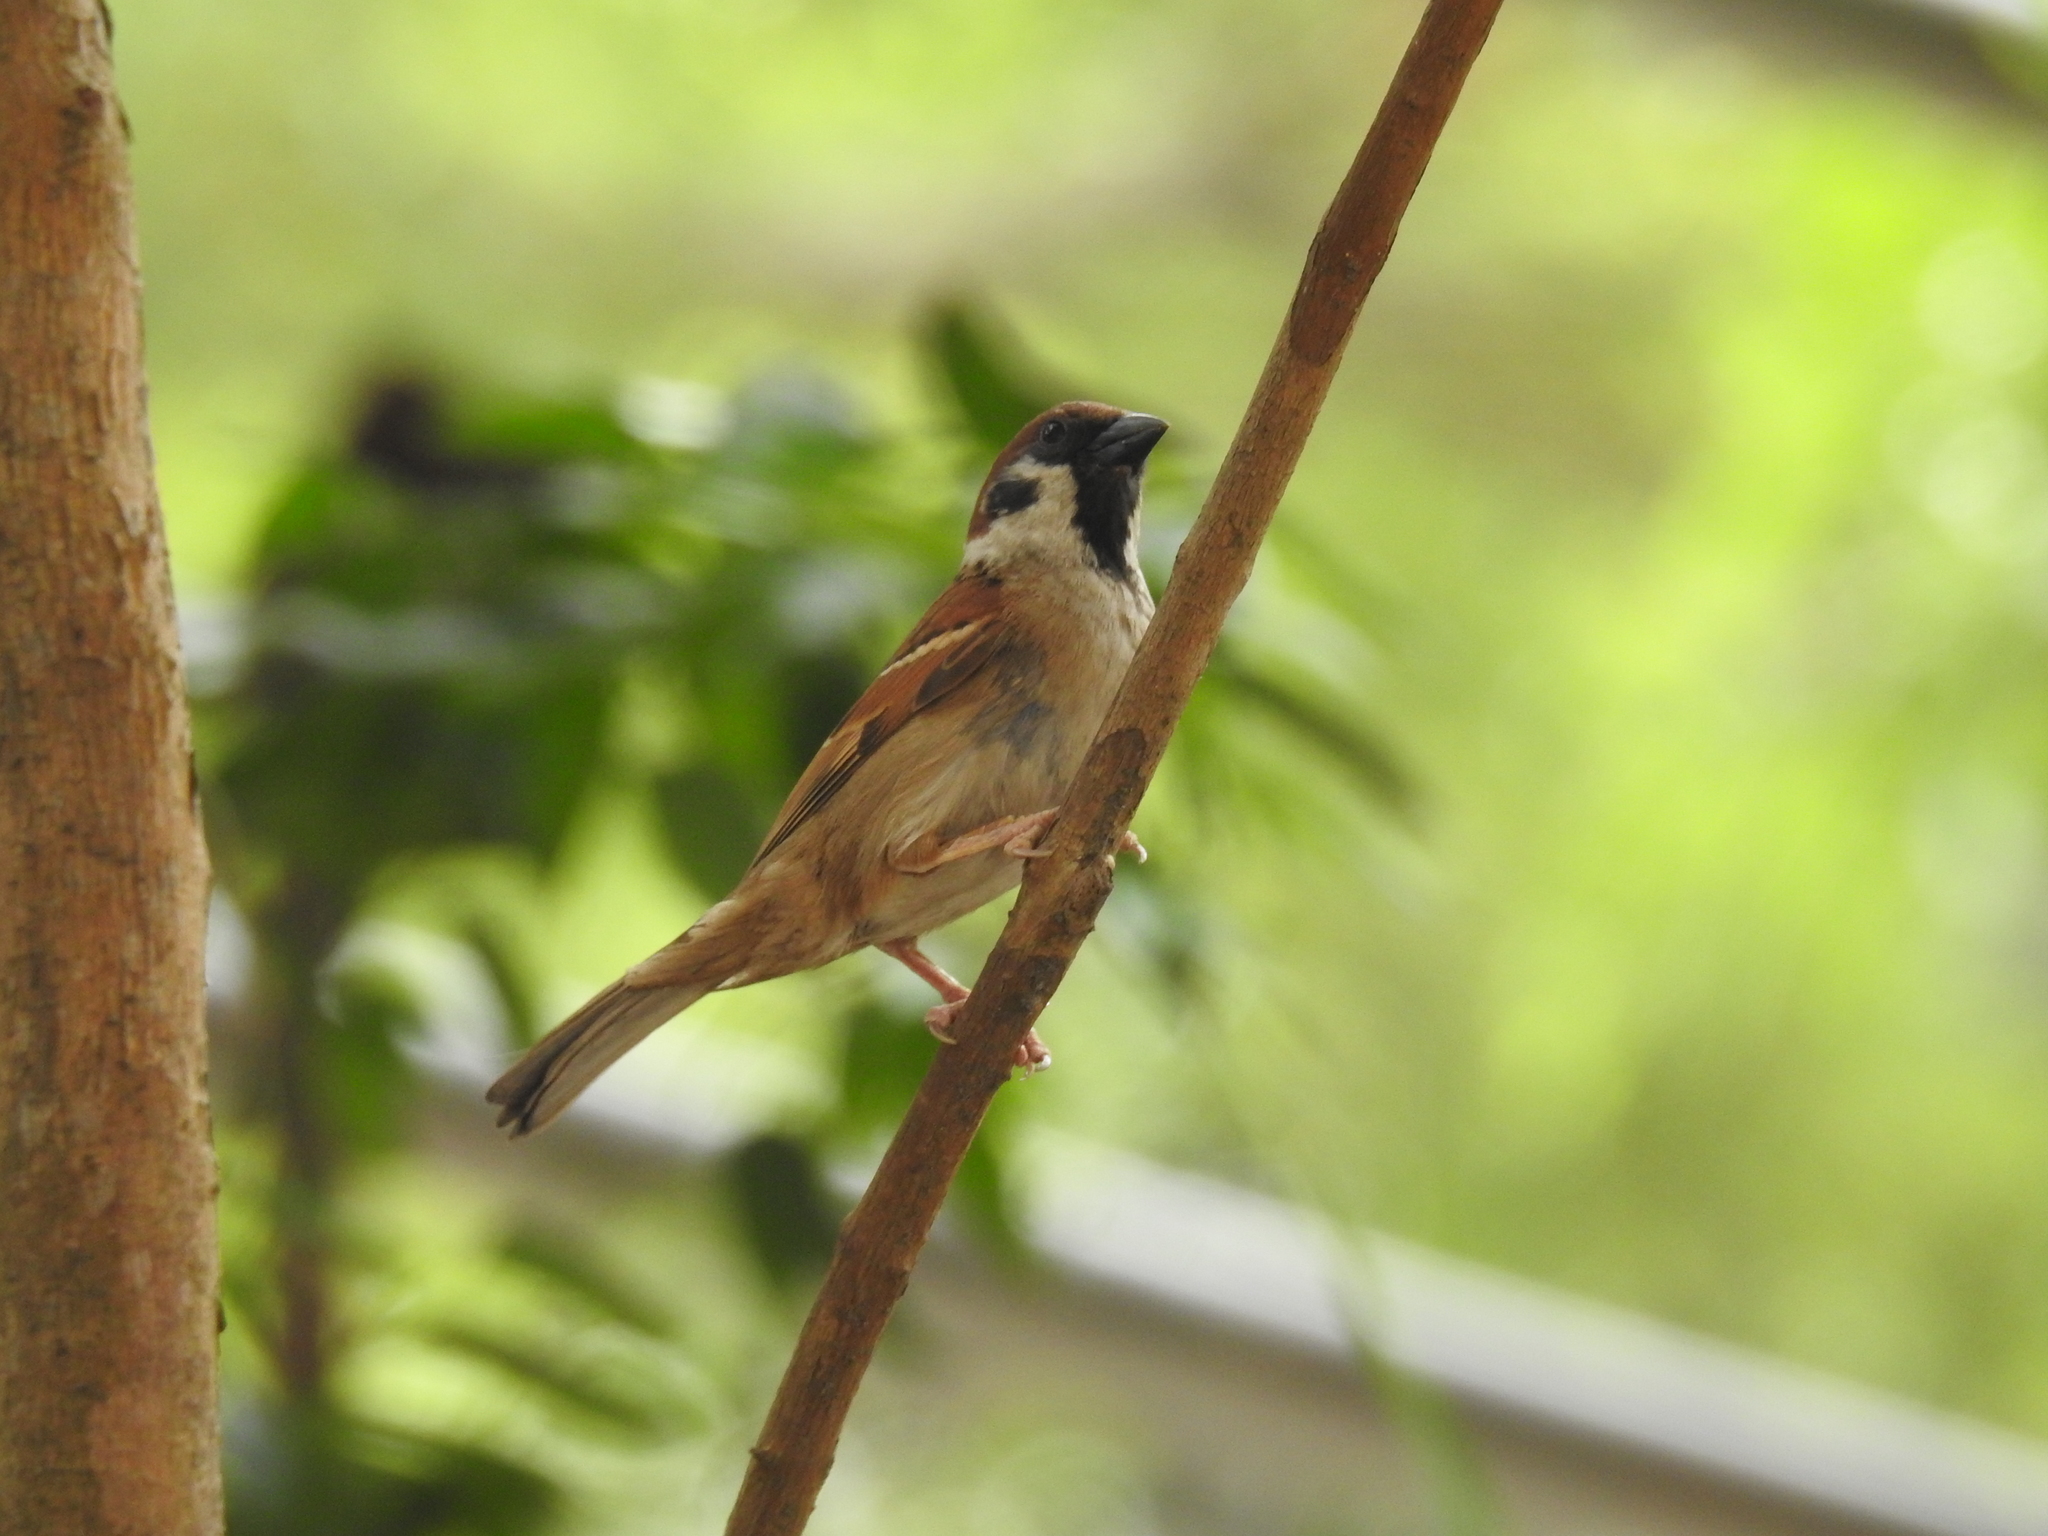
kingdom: Animalia
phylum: Chordata
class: Aves
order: Passeriformes
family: Passeridae
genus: Passer
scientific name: Passer montanus
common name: Eurasian tree sparrow
